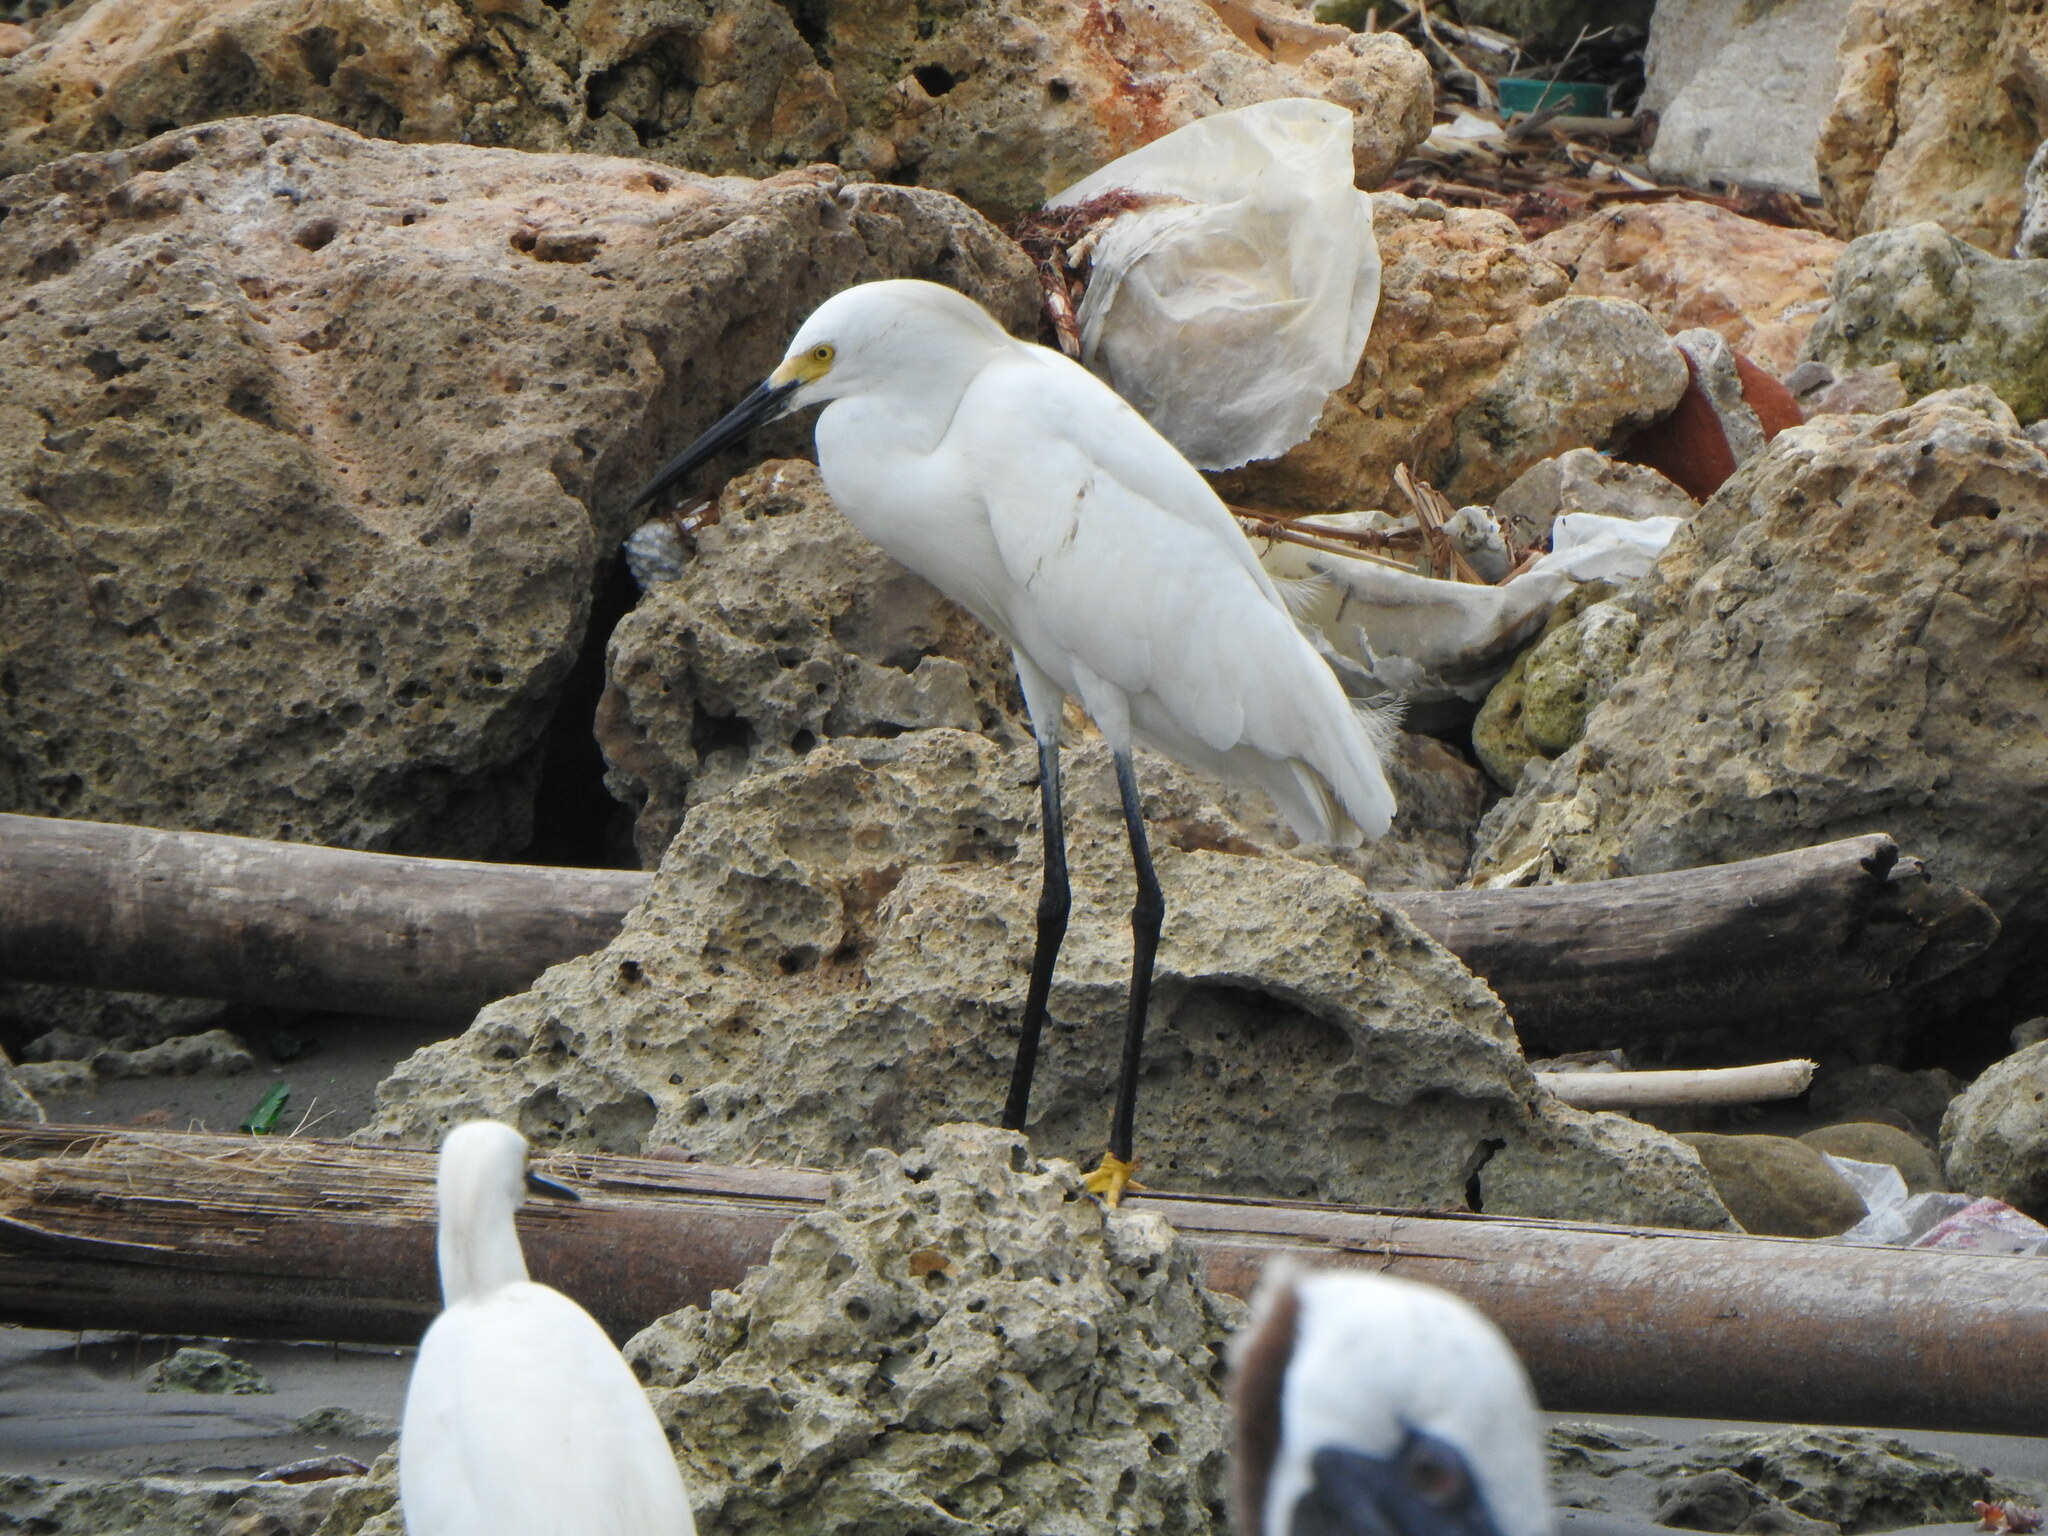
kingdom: Animalia
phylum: Chordata
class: Aves
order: Pelecaniformes
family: Ardeidae
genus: Egretta
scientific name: Egretta thula
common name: Snowy egret
